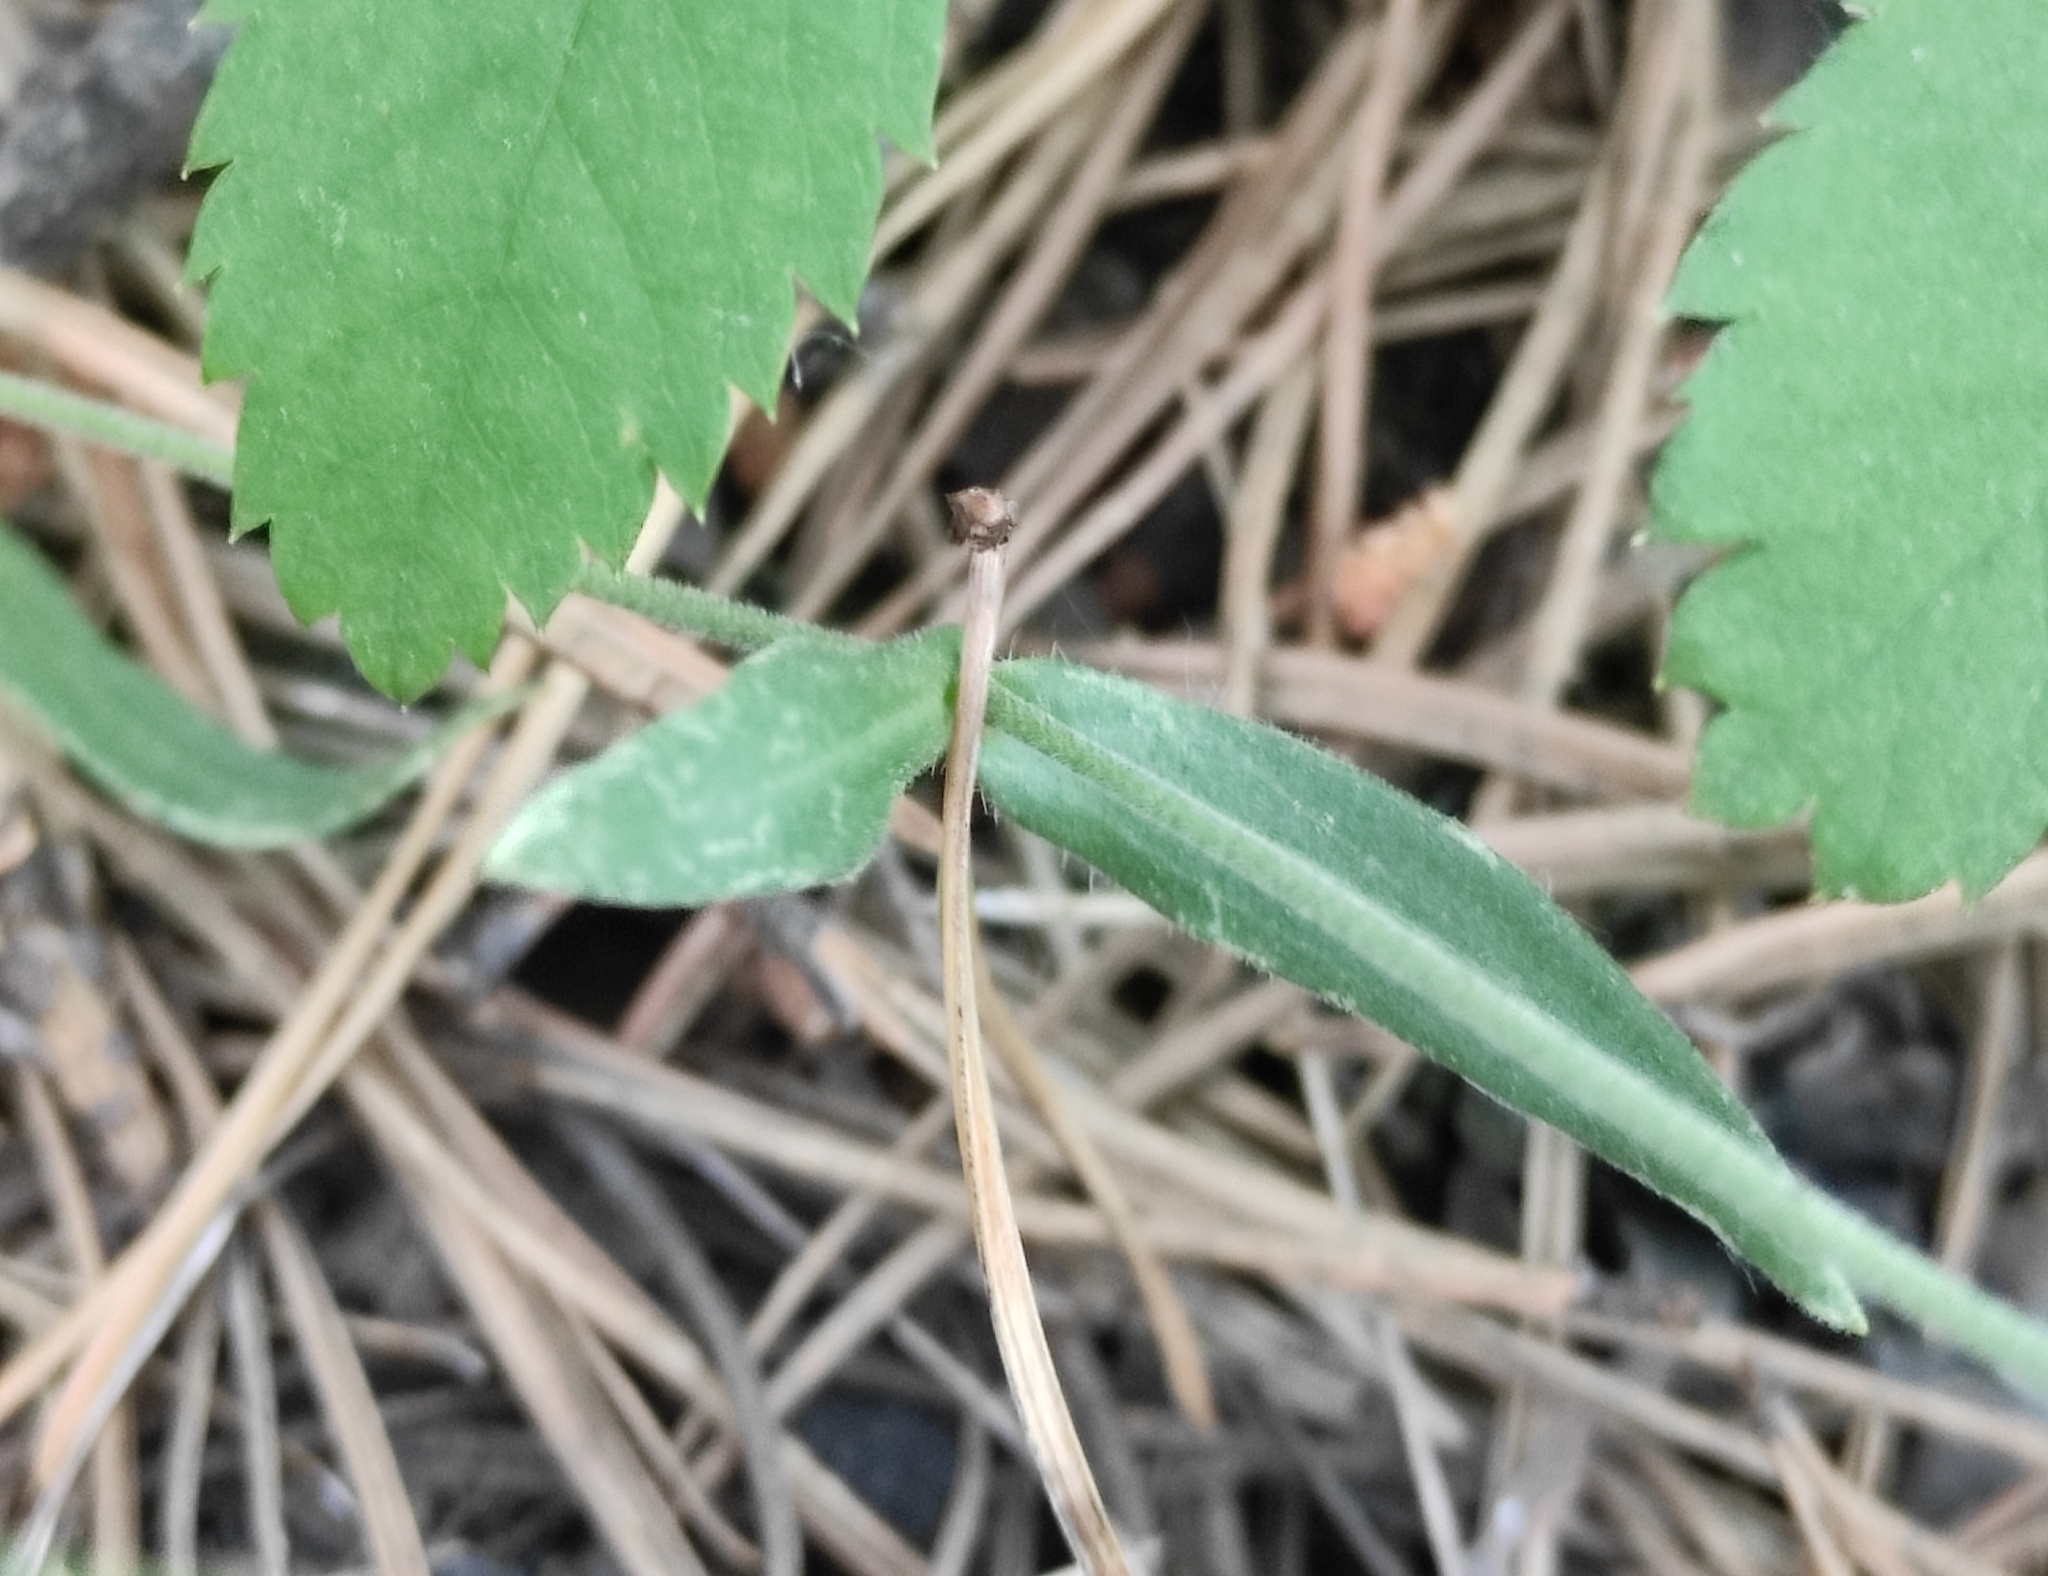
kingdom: Plantae
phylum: Tracheophyta
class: Magnoliopsida
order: Caryophyllales
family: Caryophyllaceae
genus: Silene
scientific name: Silene orientalimongolica
